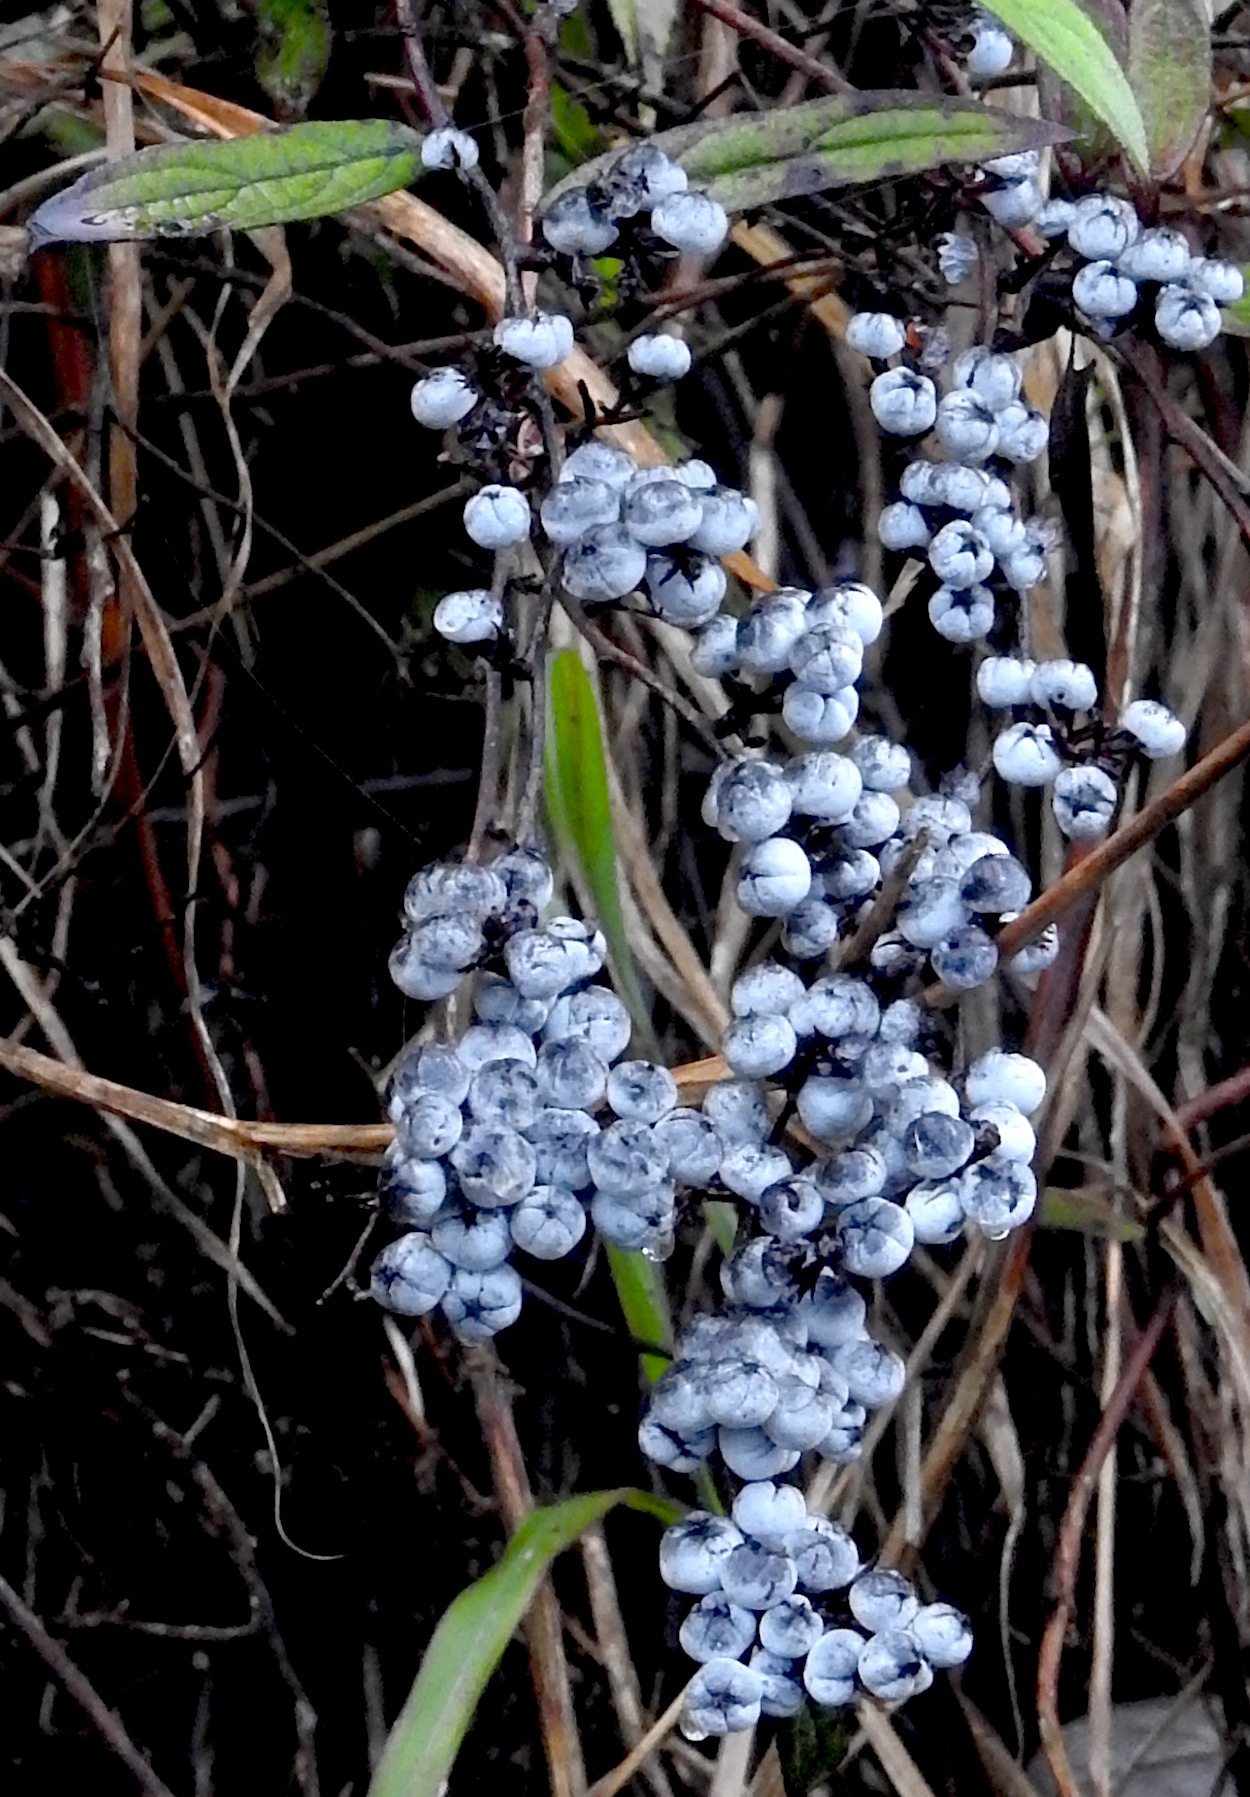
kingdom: Plantae
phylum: Tracheophyta
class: Magnoliopsida
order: Ericales
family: Ericaceae
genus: Gaultheria
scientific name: Gaultheria semi-infera
